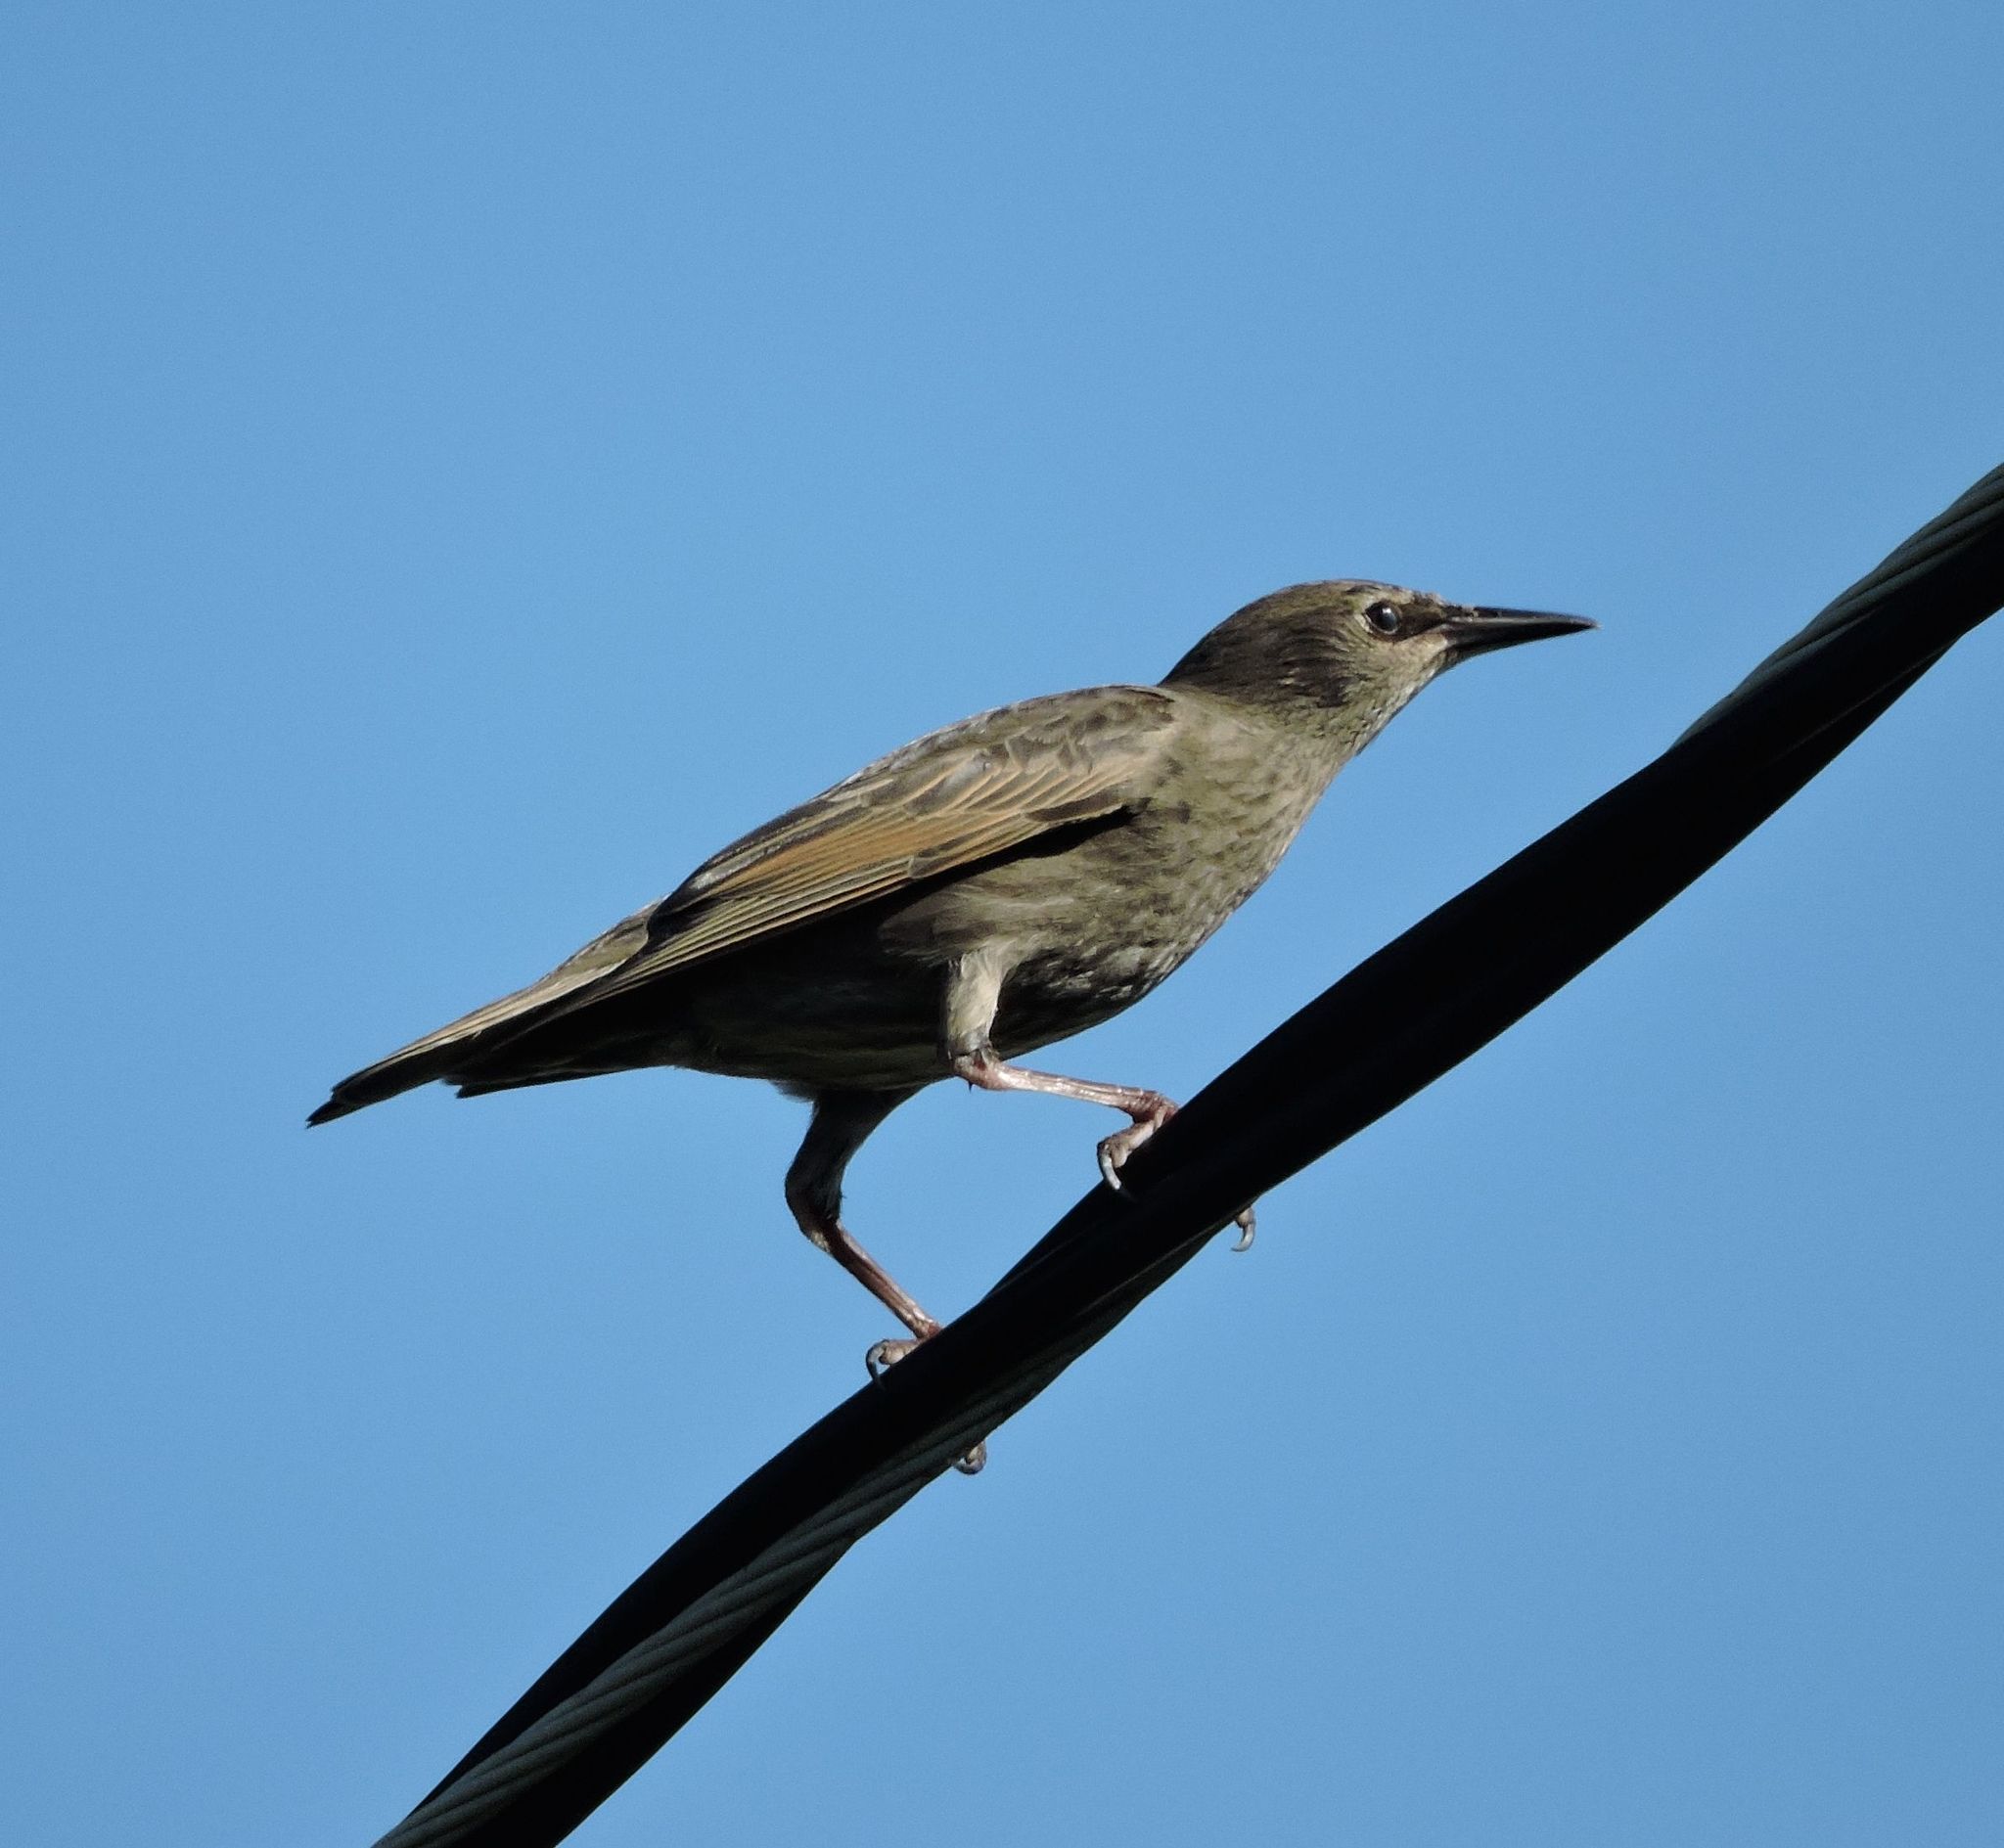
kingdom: Animalia
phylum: Chordata
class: Aves
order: Passeriformes
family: Sturnidae
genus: Sturnus
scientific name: Sturnus vulgaris
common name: Common starling
